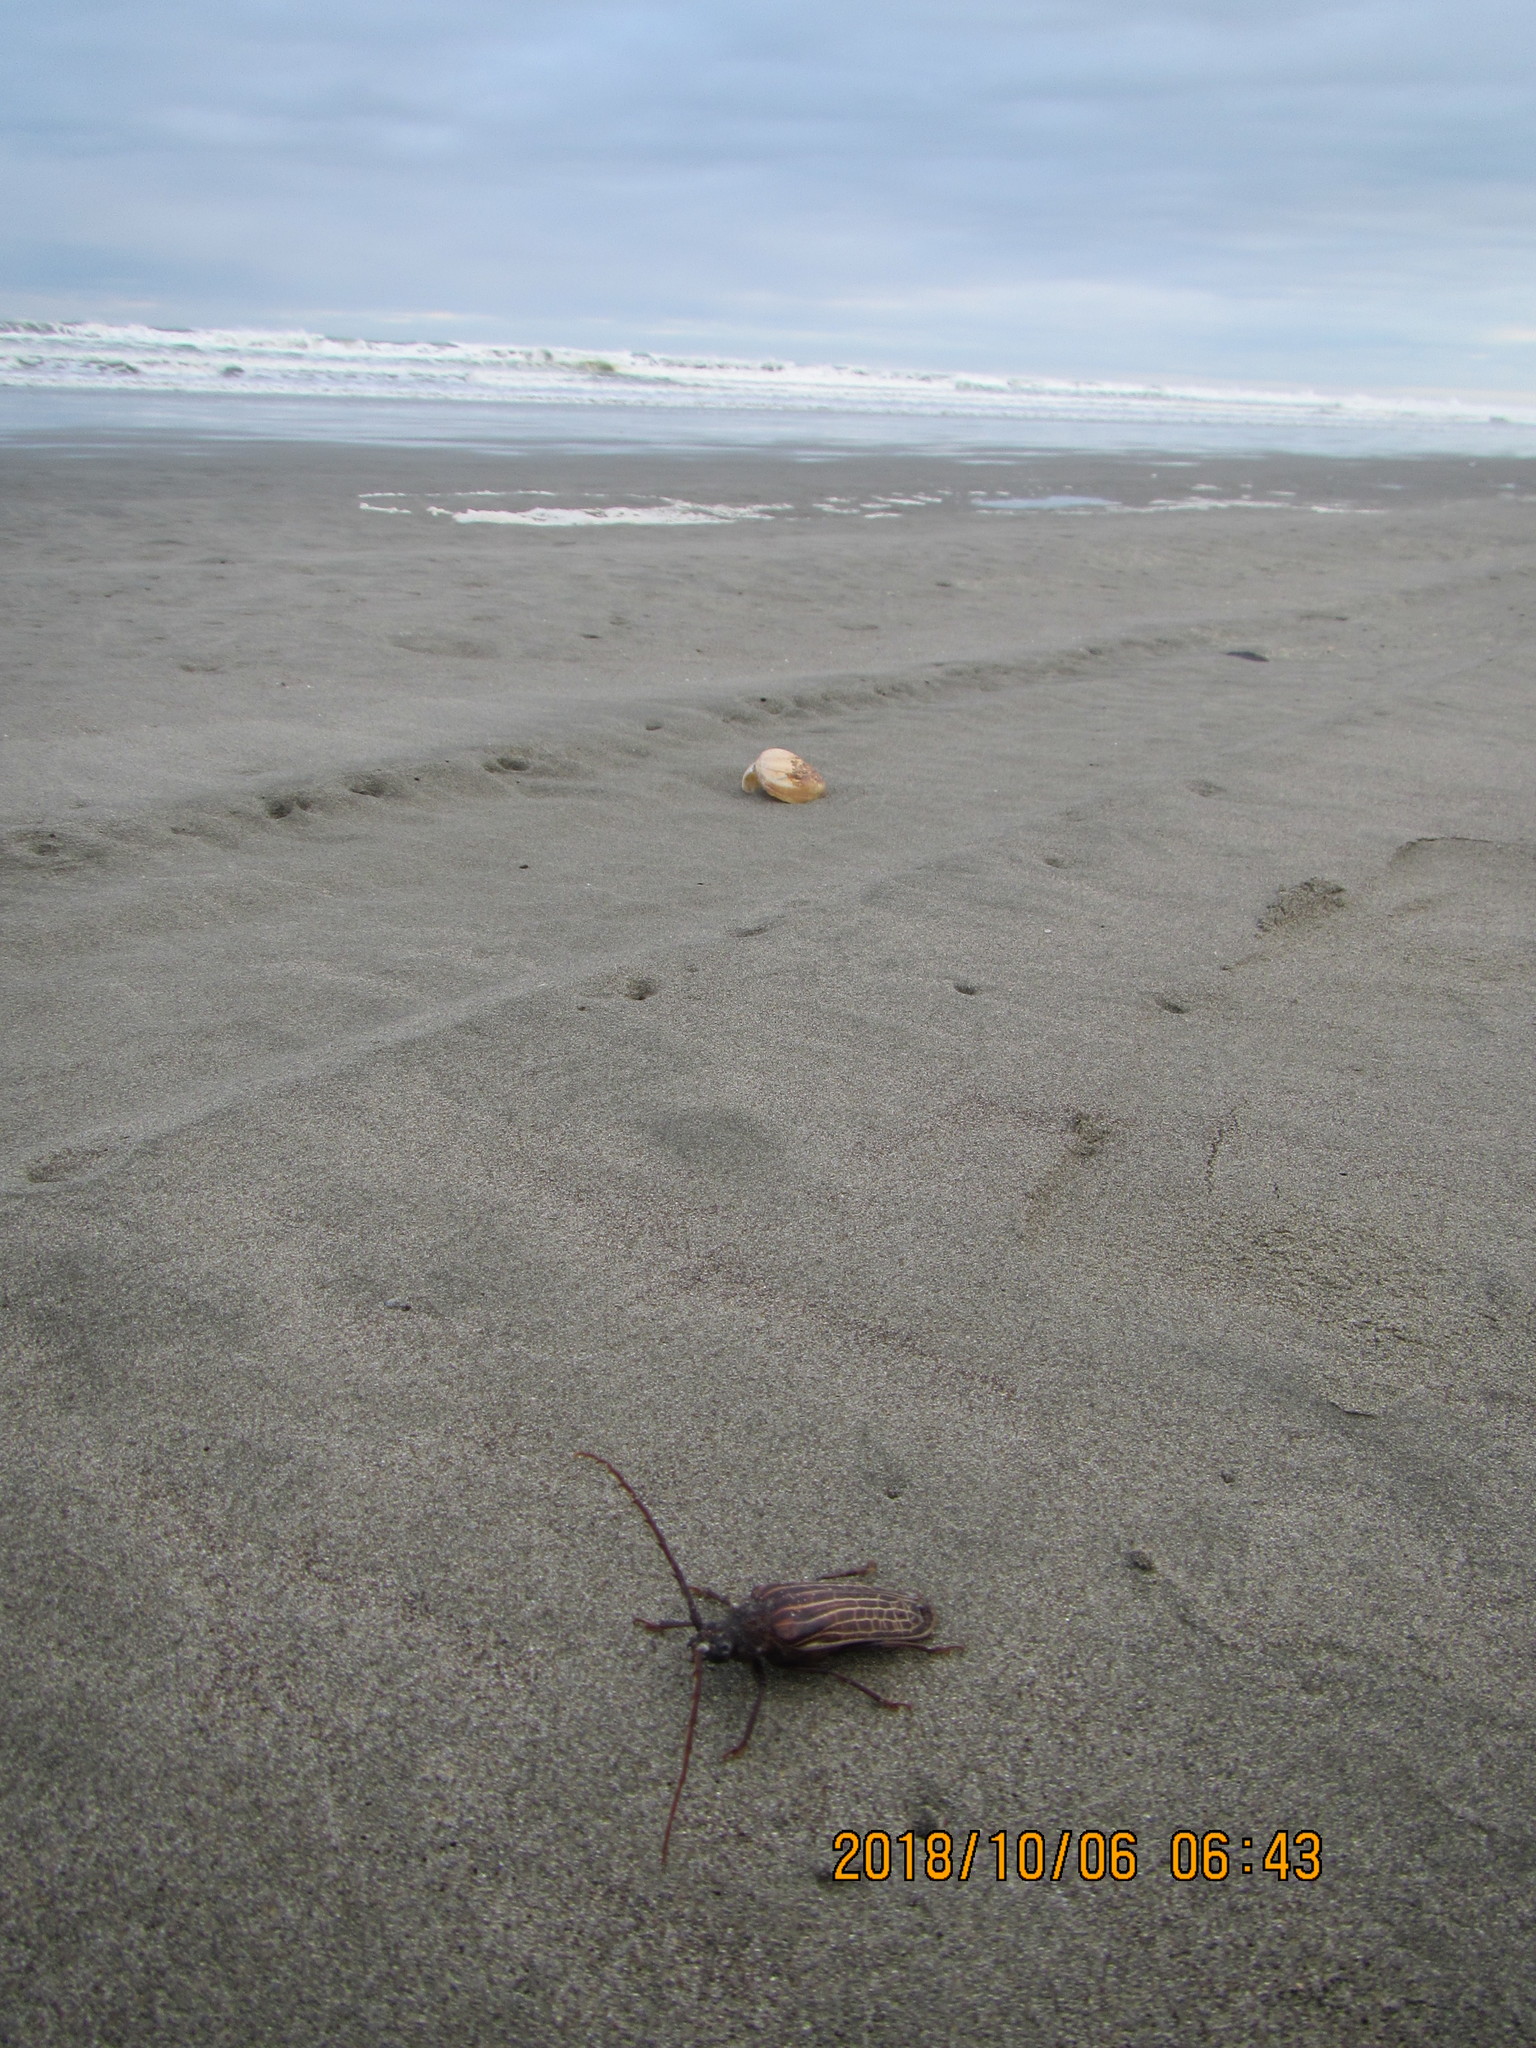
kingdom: Animalia
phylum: Arthropoda
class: Insecta
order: Coleoptera
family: Cerambycidae
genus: Prionoplus
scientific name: Prionoplus reticularis
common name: Huhu beetle
